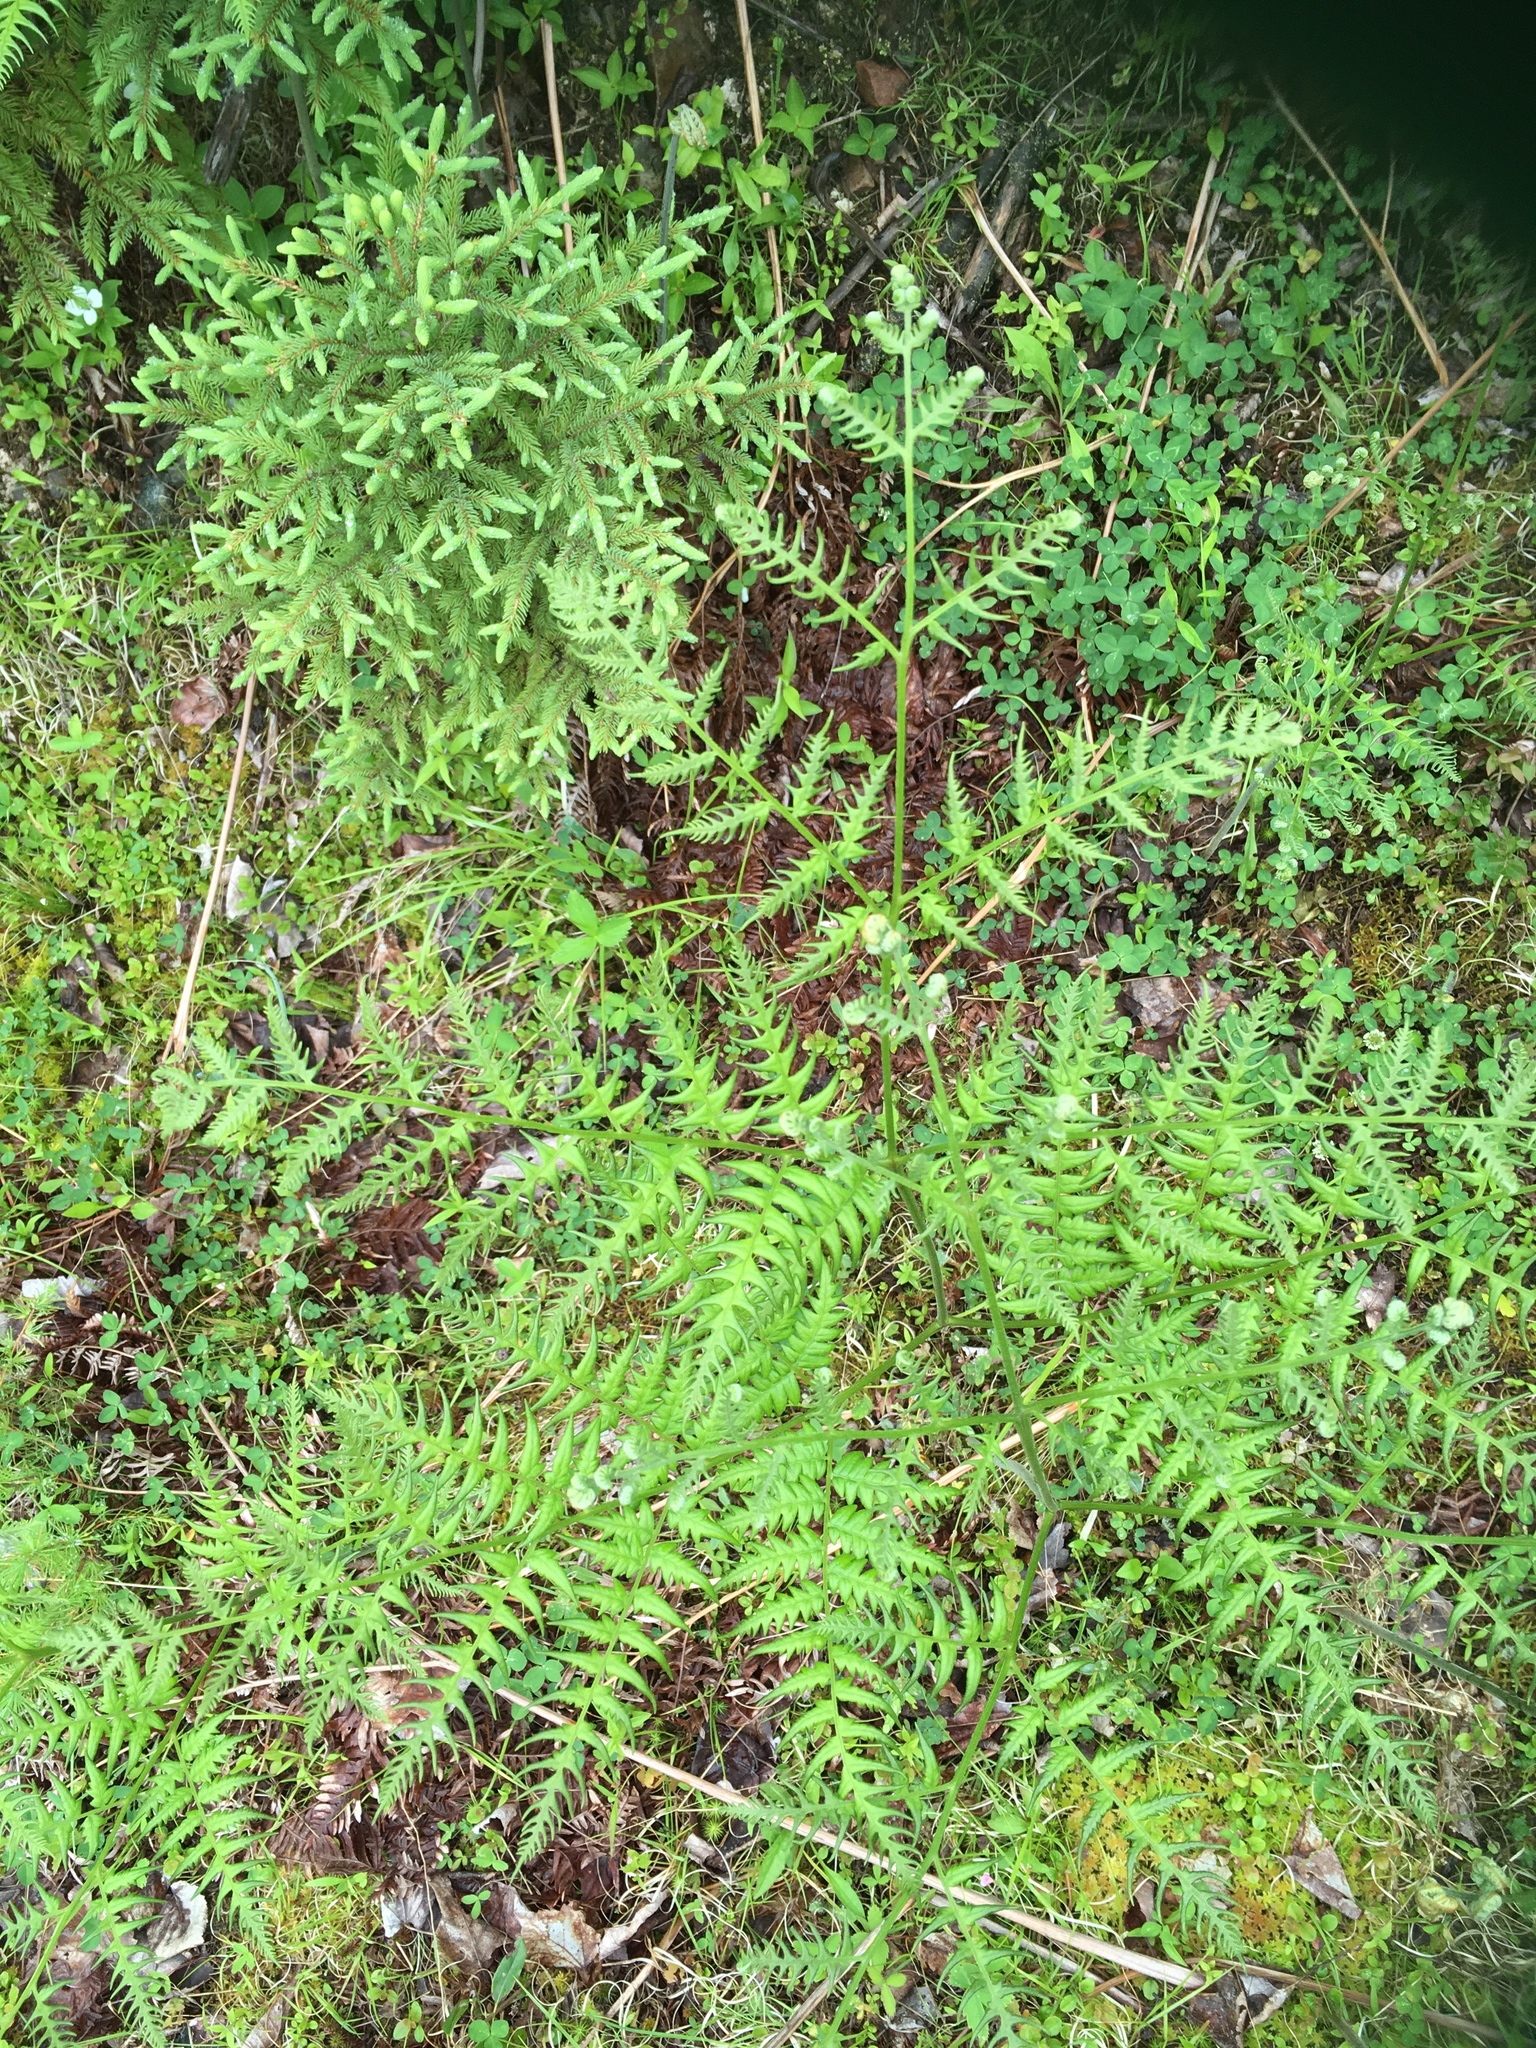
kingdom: Plantae
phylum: Tracheophyta
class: Polypodiopsida
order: Polypodiales
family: Dennstaedtiaceae
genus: Pteridium
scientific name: Pteridium aquilinum
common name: Bracken
